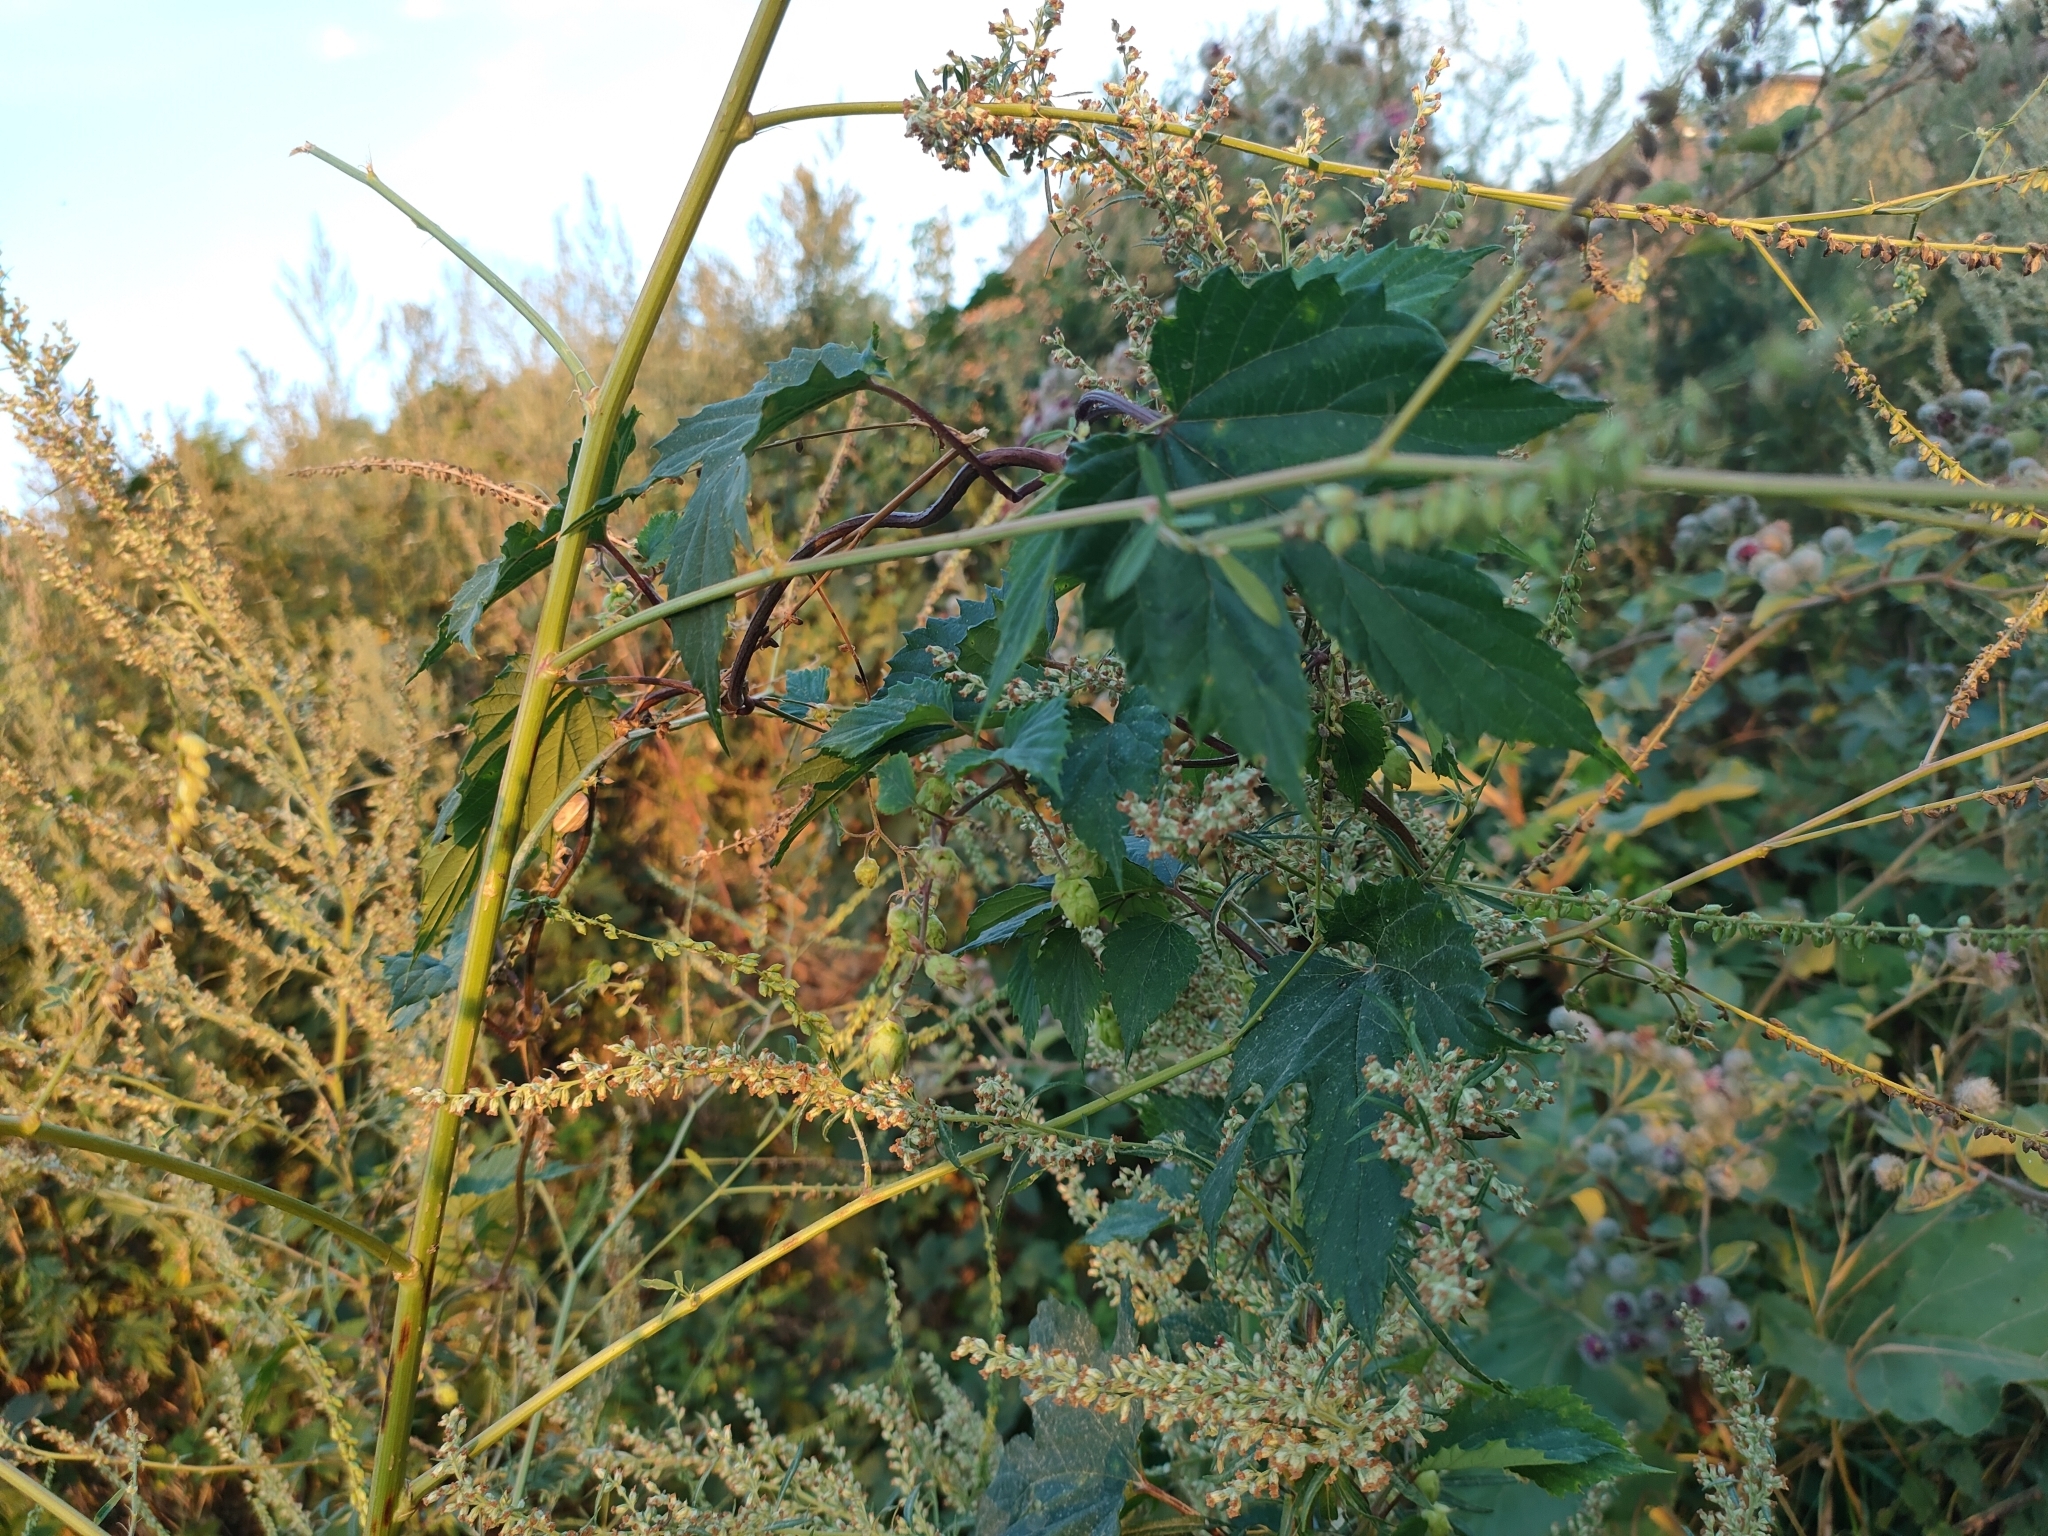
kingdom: Plantae
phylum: Tracheophyta
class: Magnoliopsida
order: Rosales
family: Cannabaceae
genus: Humulus
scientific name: Humulus lupulus
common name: Hop
